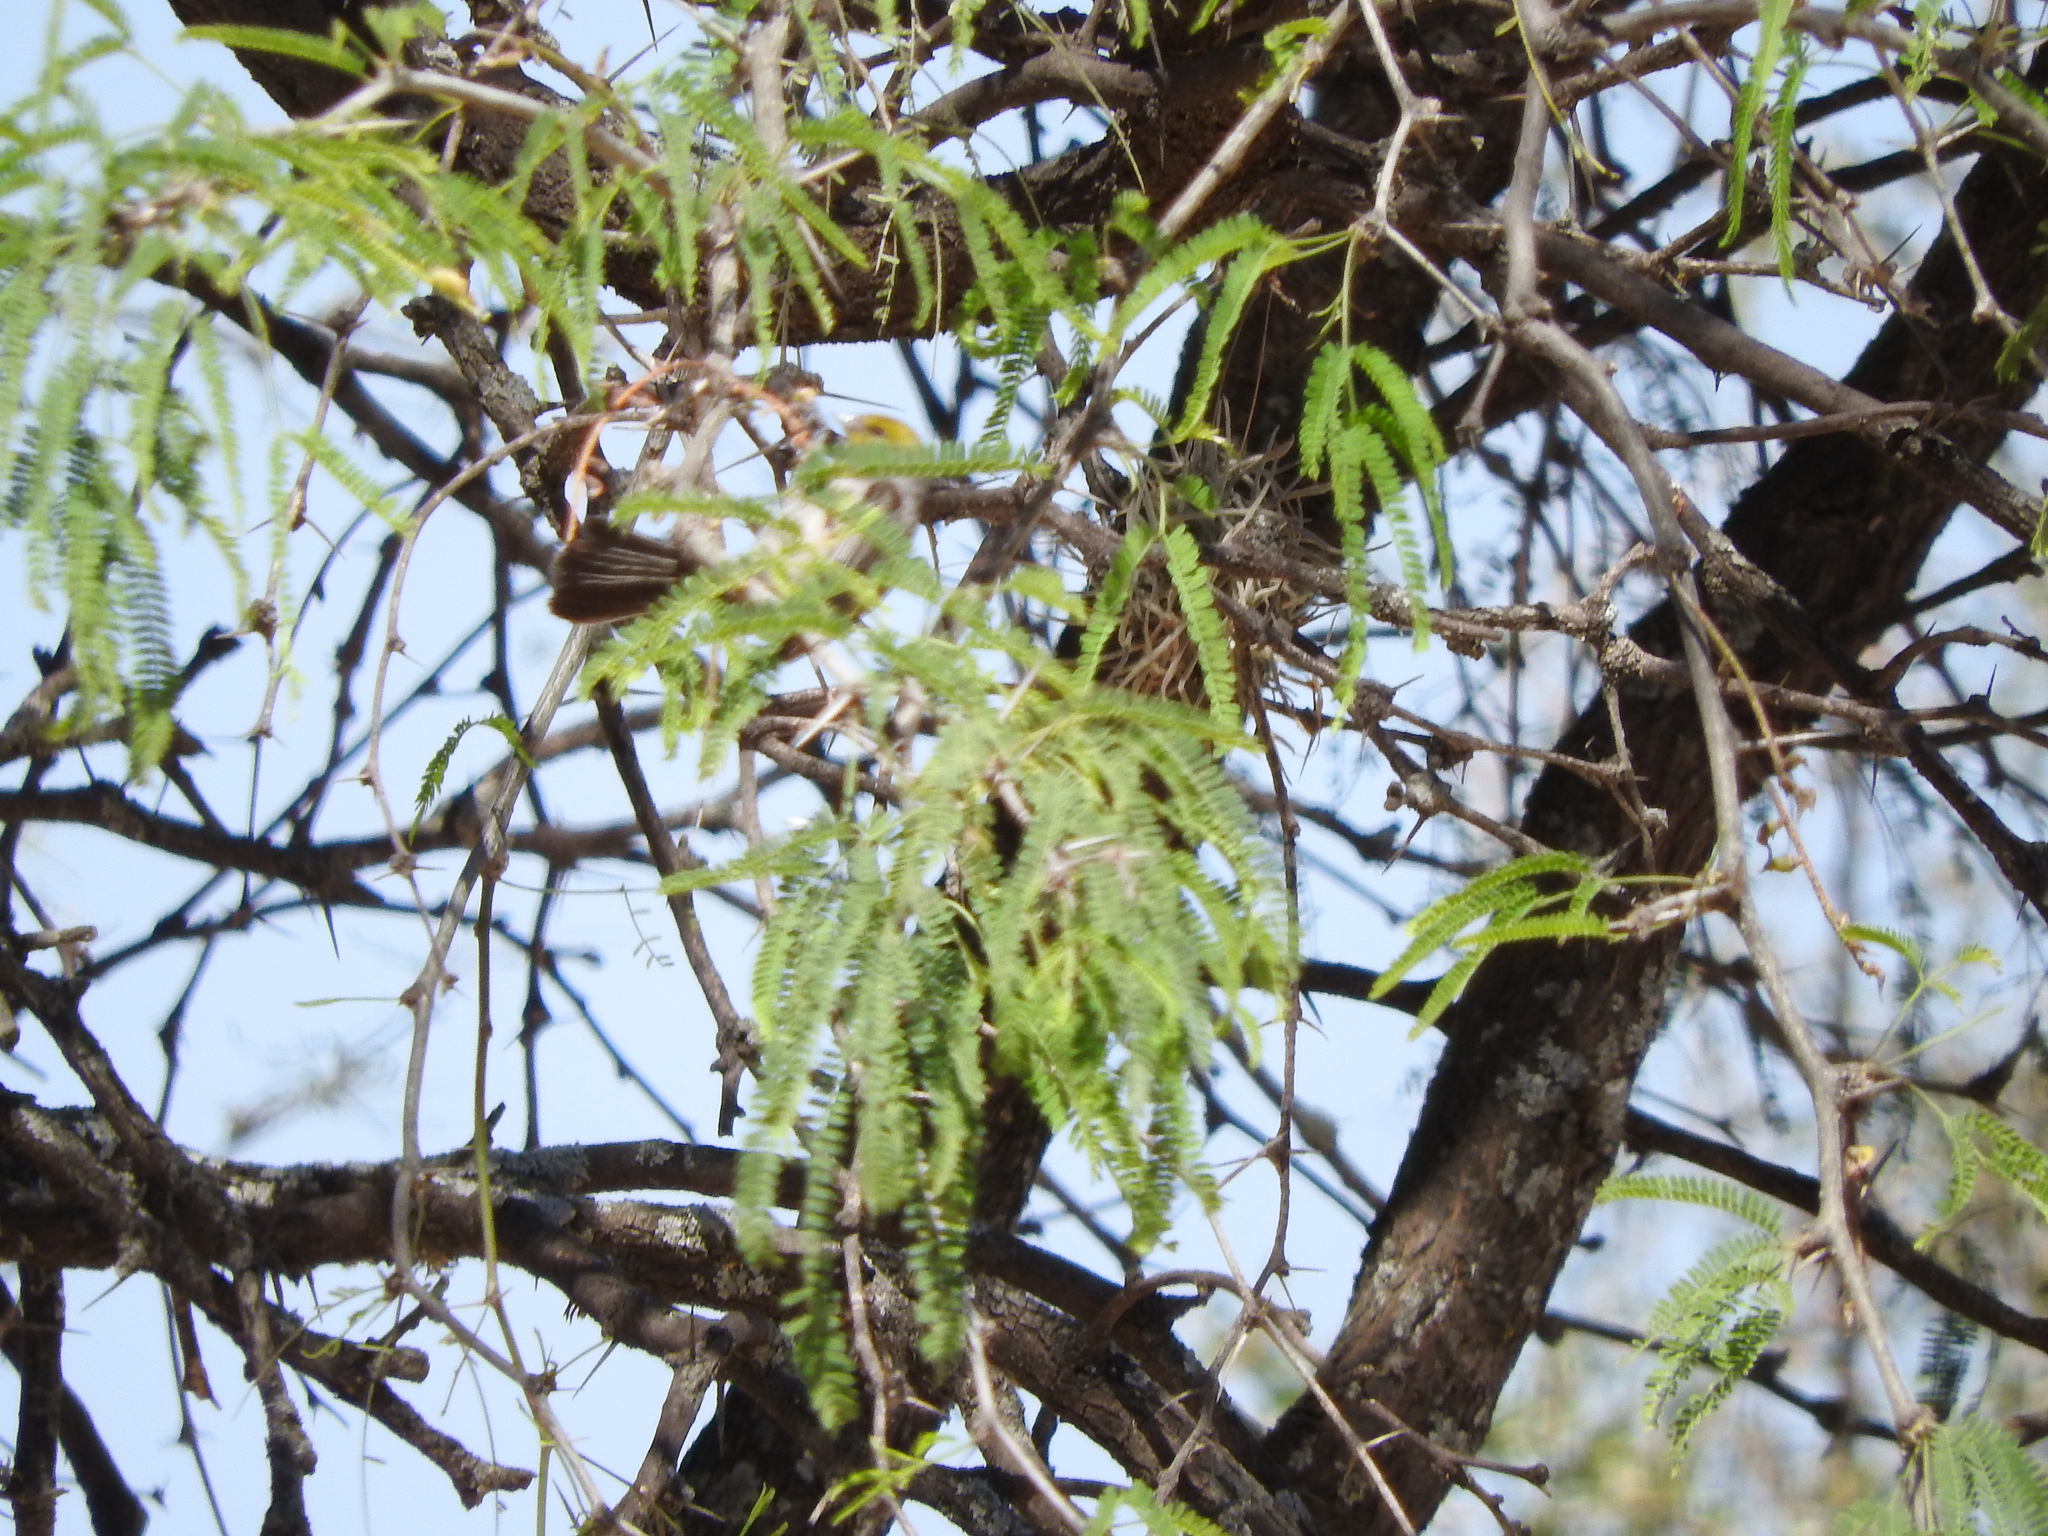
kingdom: Animalia
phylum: Chordata
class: Aves
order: Passeriformes
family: Remizidae
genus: Auriparus
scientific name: Auriparus flaviceps
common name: Verdin
